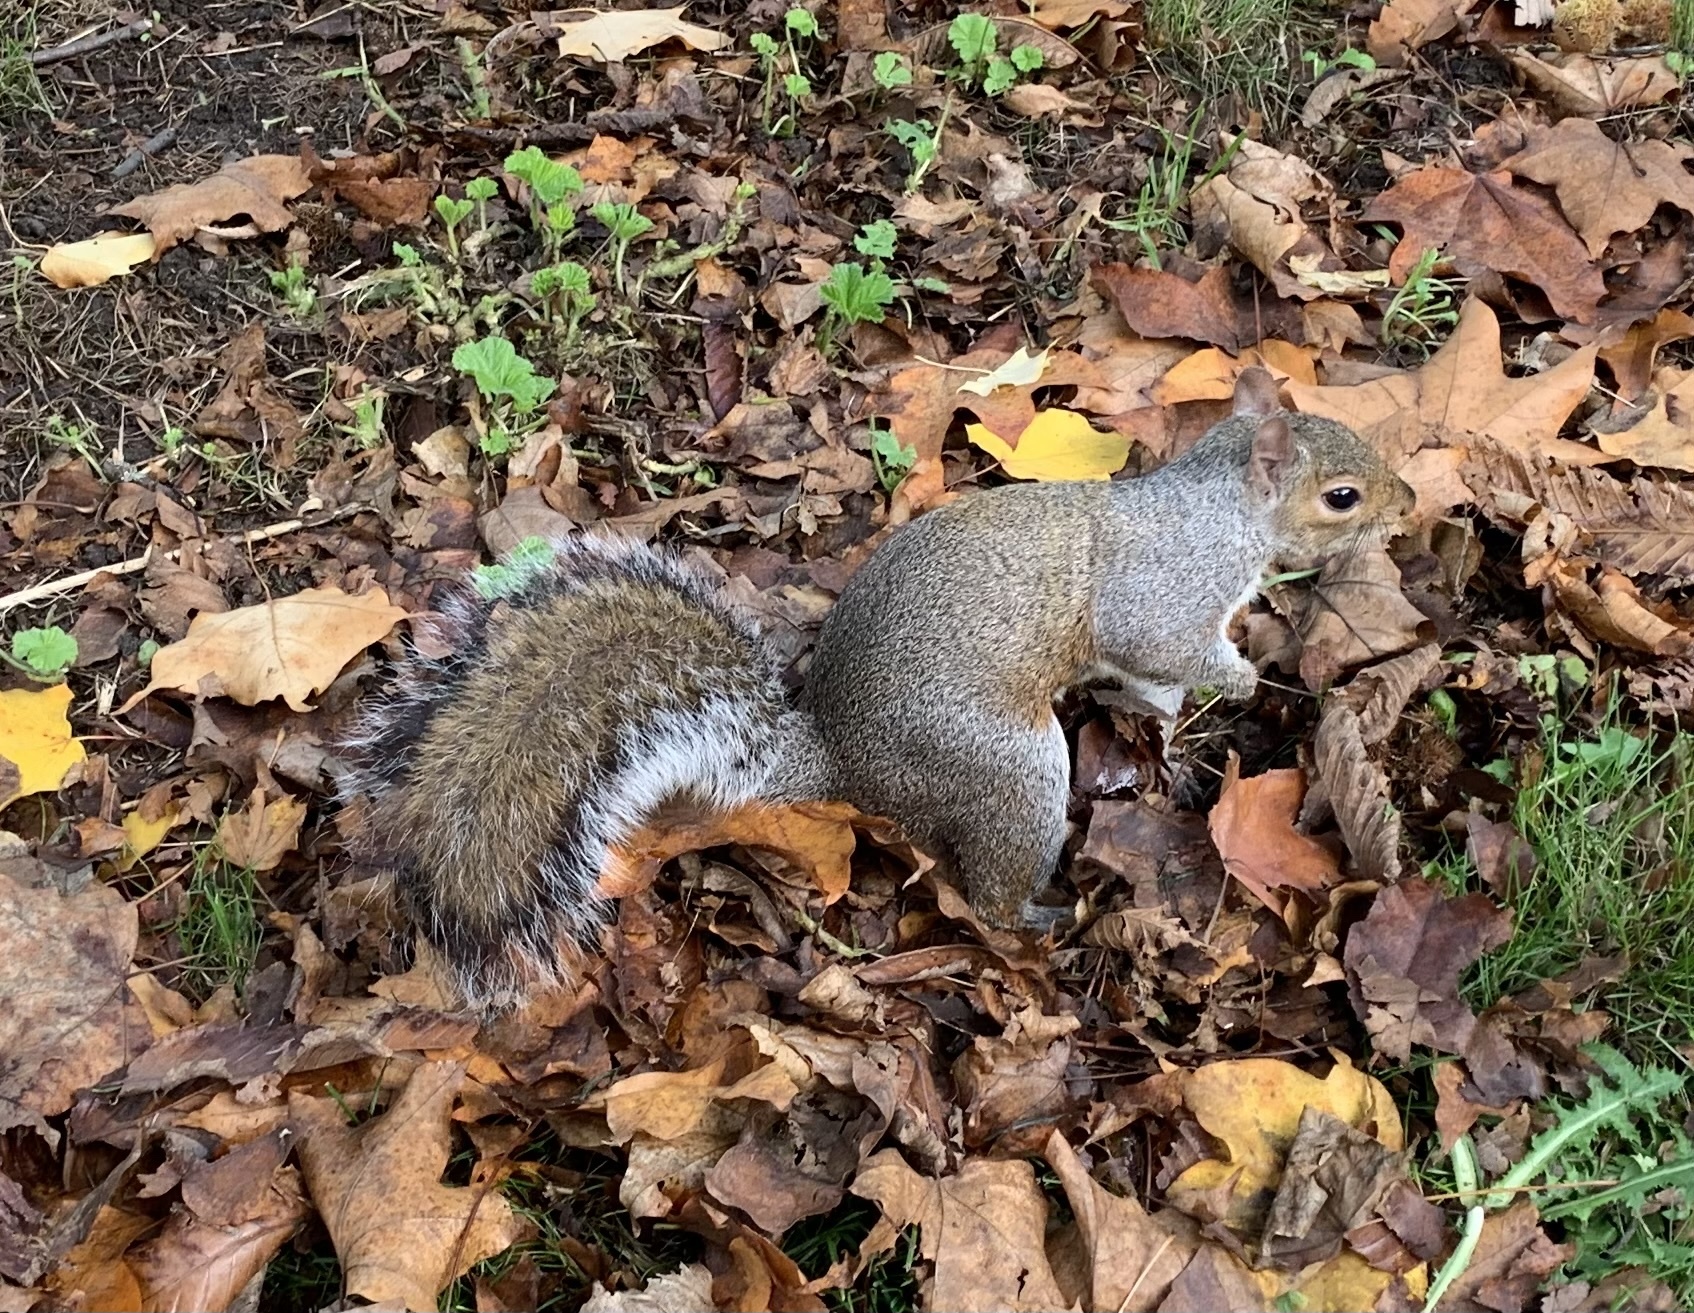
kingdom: Animalia
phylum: Chordata
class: Mammalia
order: Rodentia
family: Sciuridae
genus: Sciurus
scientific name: Sciurus carolinensis
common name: Eastern gray squirrel
